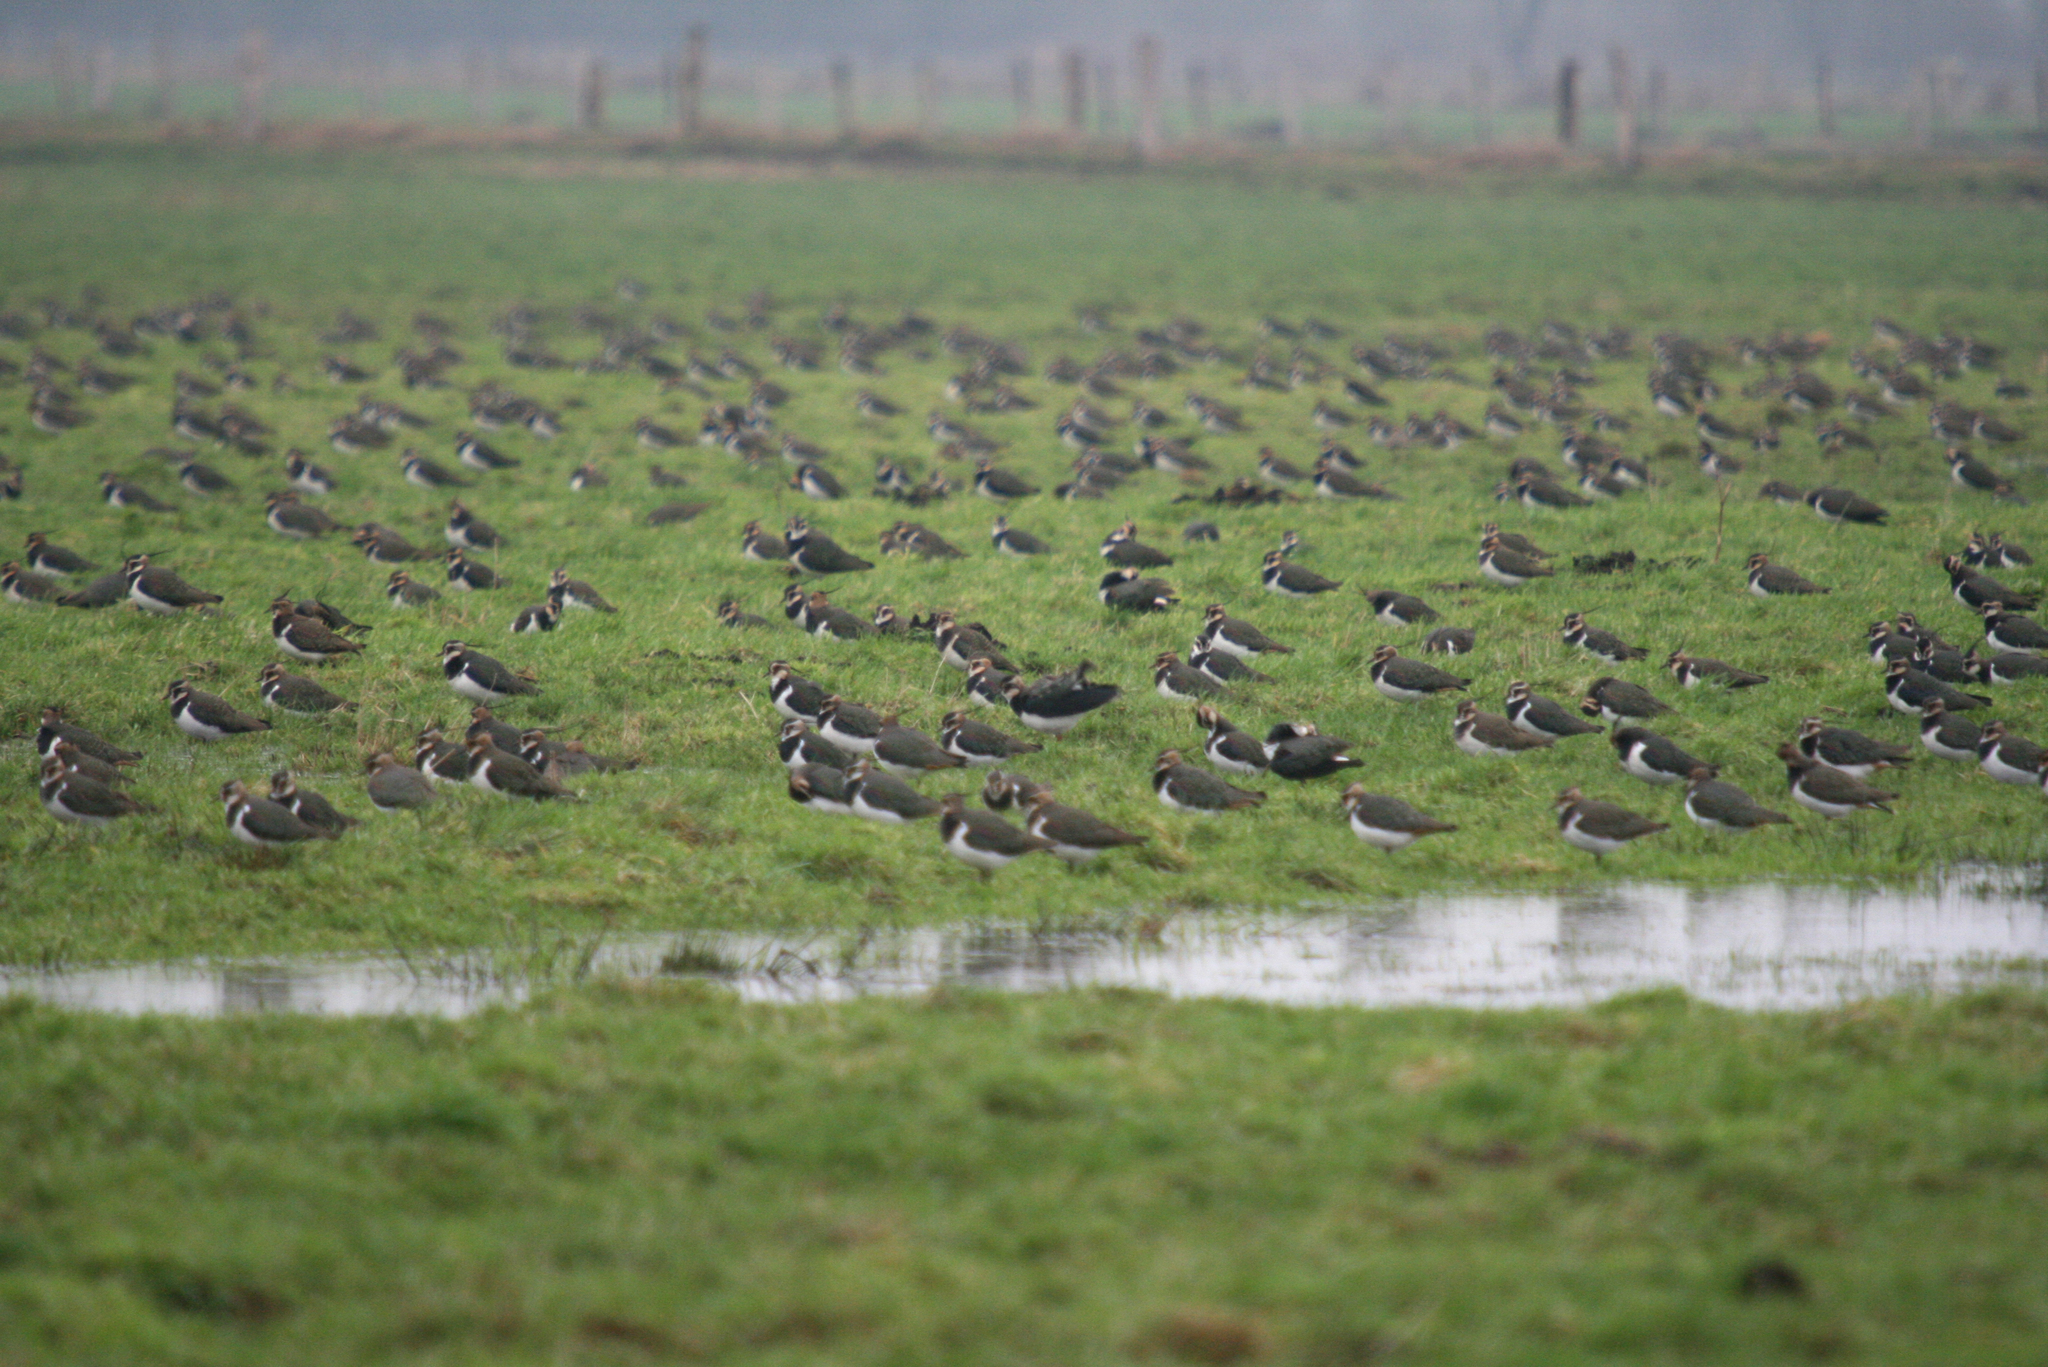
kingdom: Animalia
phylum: Chordata
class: Aves
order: Charadriiformes
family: Charadriidae
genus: Vanellus
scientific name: Vanellus vanellus
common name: Northern lapwing
